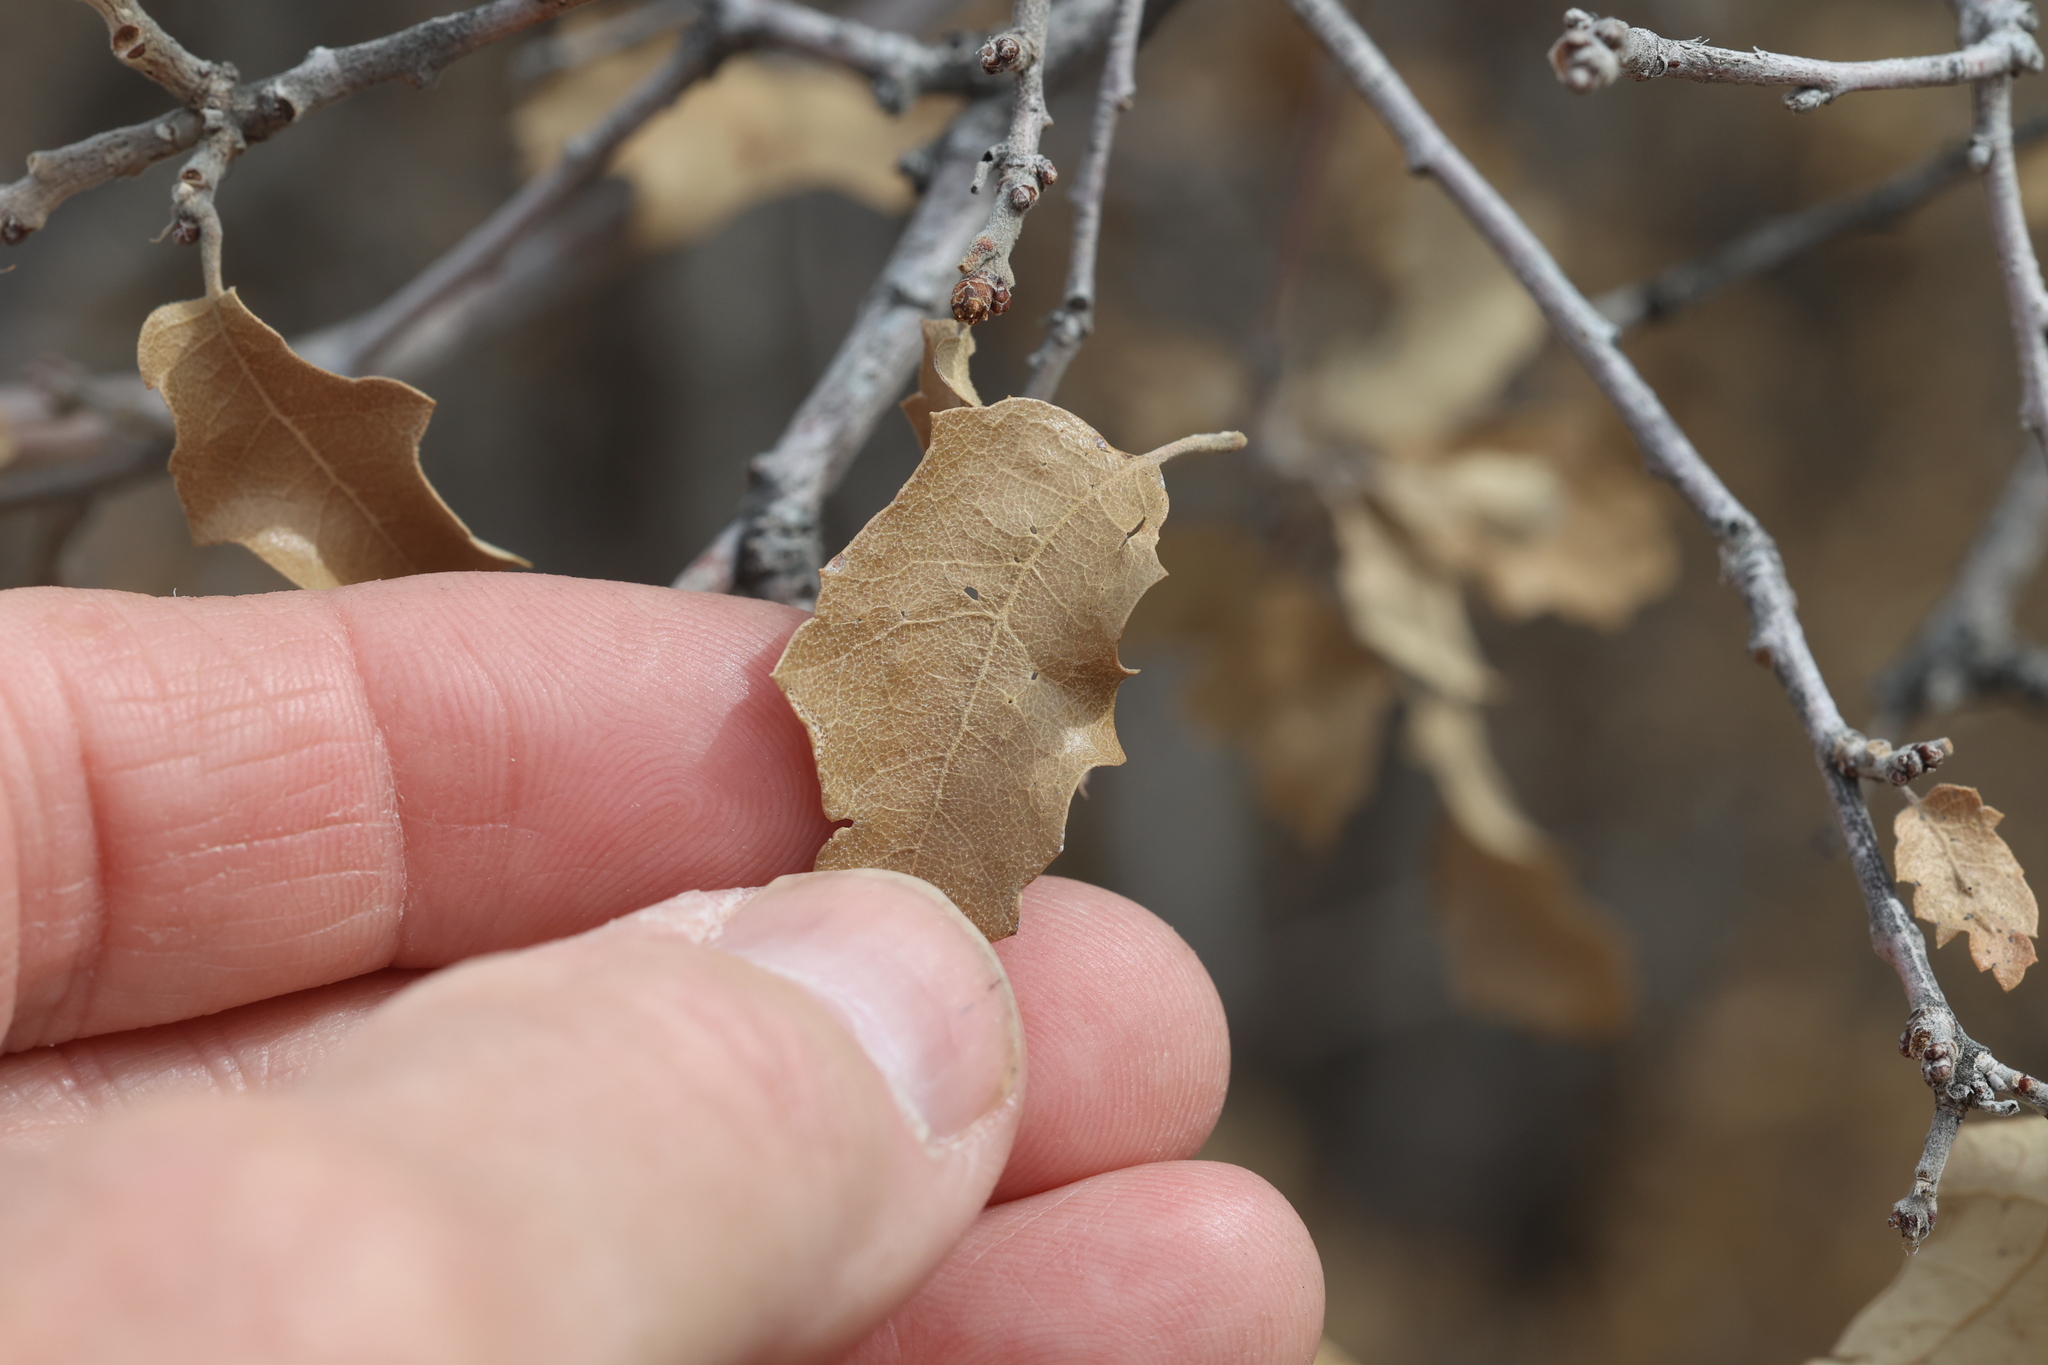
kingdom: Plantae
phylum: Tracheophyta
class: Magnoliopsida
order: Fagales
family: Fagaceae
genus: Quercus
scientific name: Quercus pungens
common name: Pungent oak
